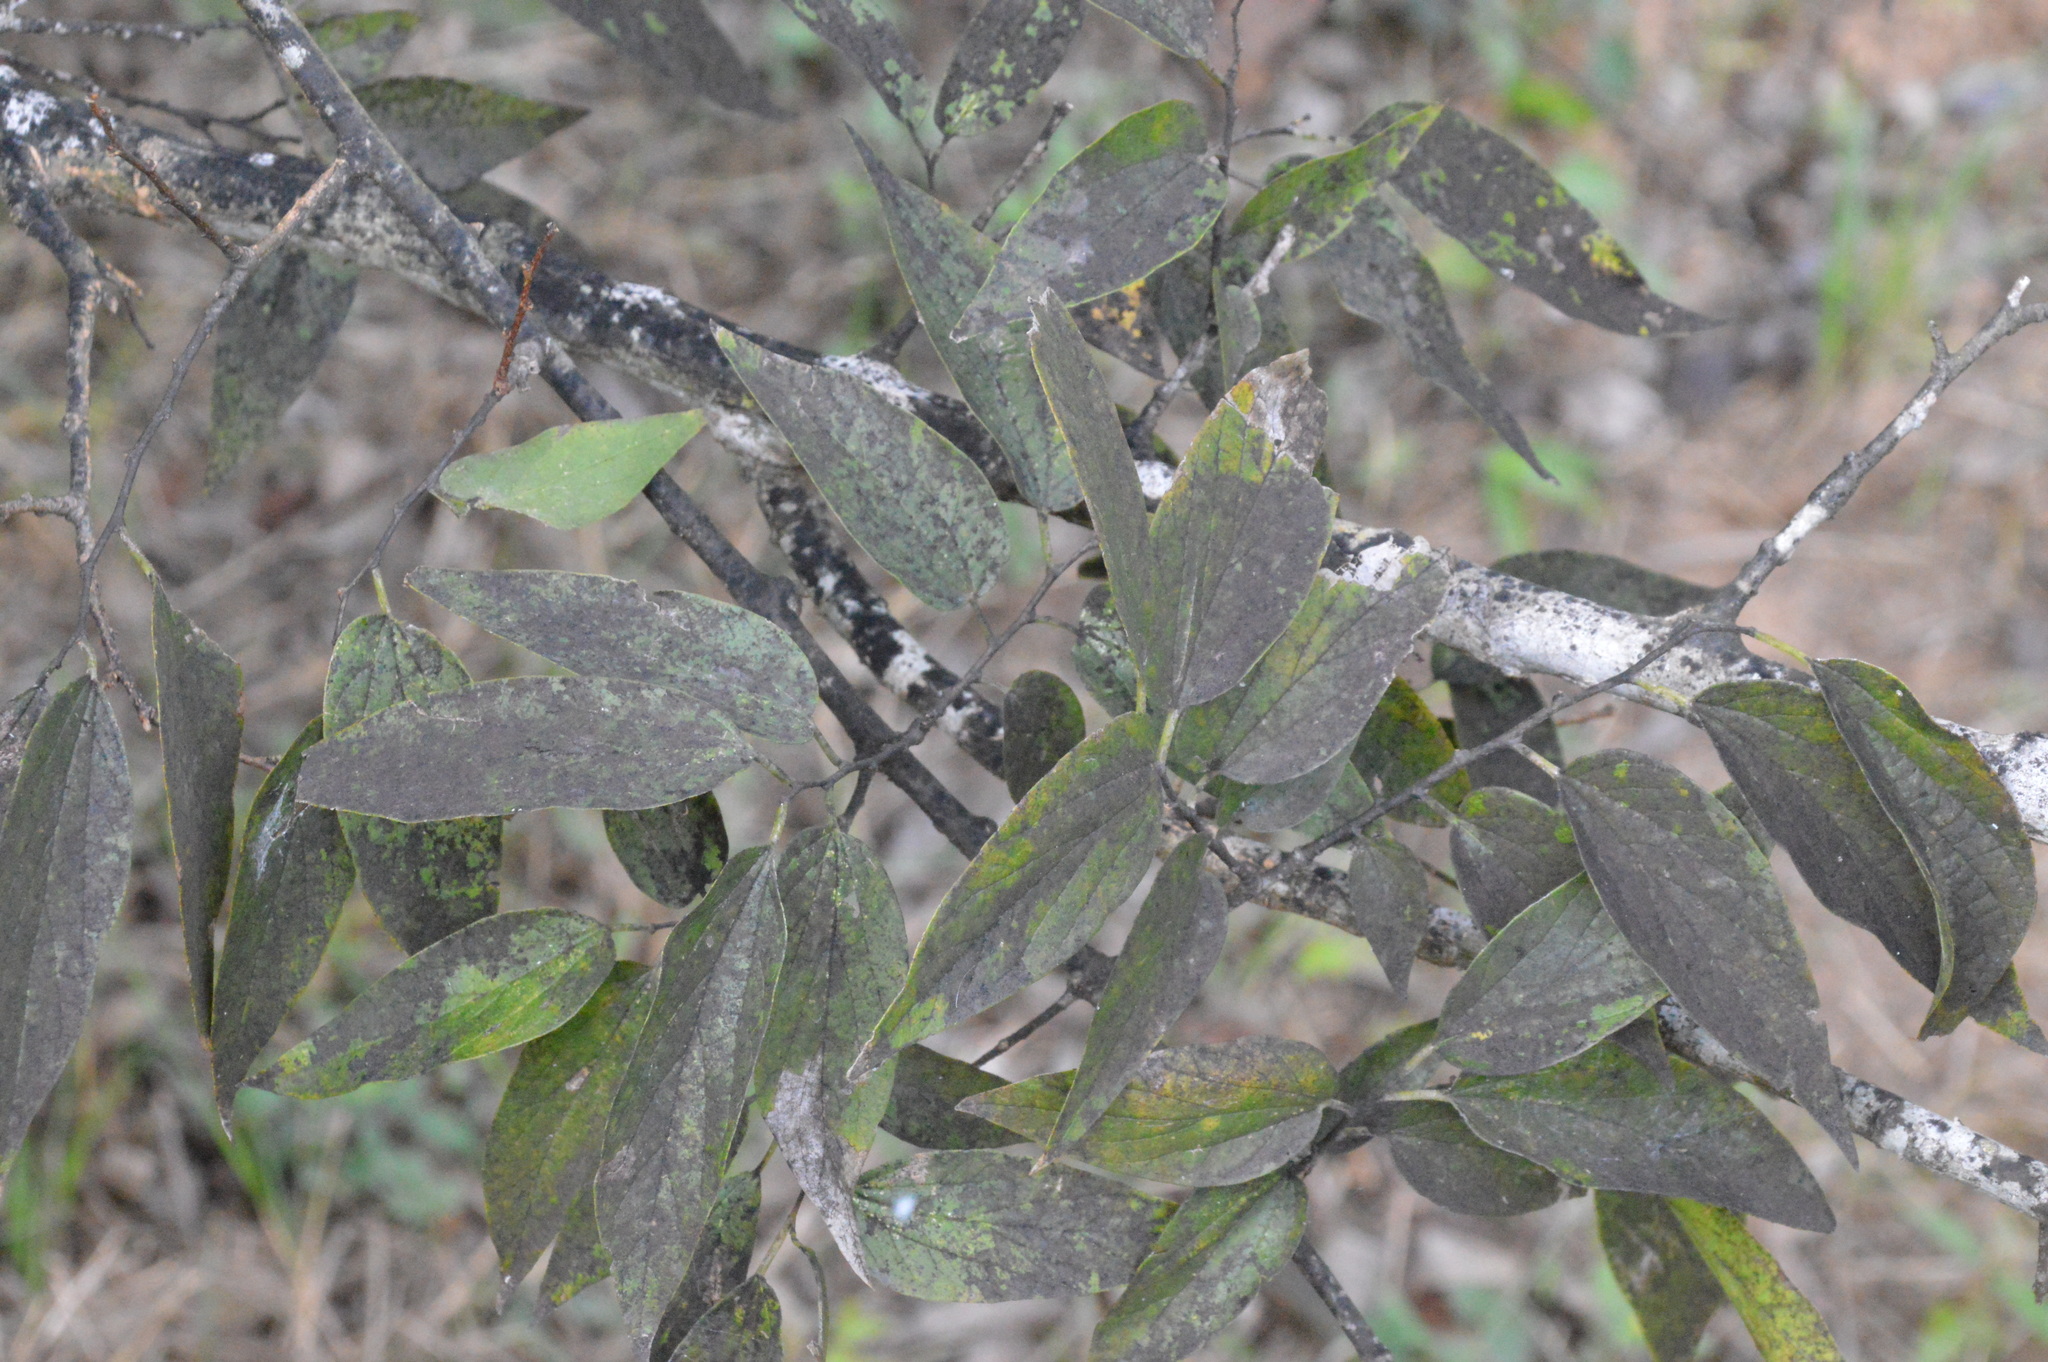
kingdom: Plantae
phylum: Tracheophyta
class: Magnoliopsida
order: Rosales
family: Cannabaceae
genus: Celtis
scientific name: Celtis laevigata
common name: Sugarberry
